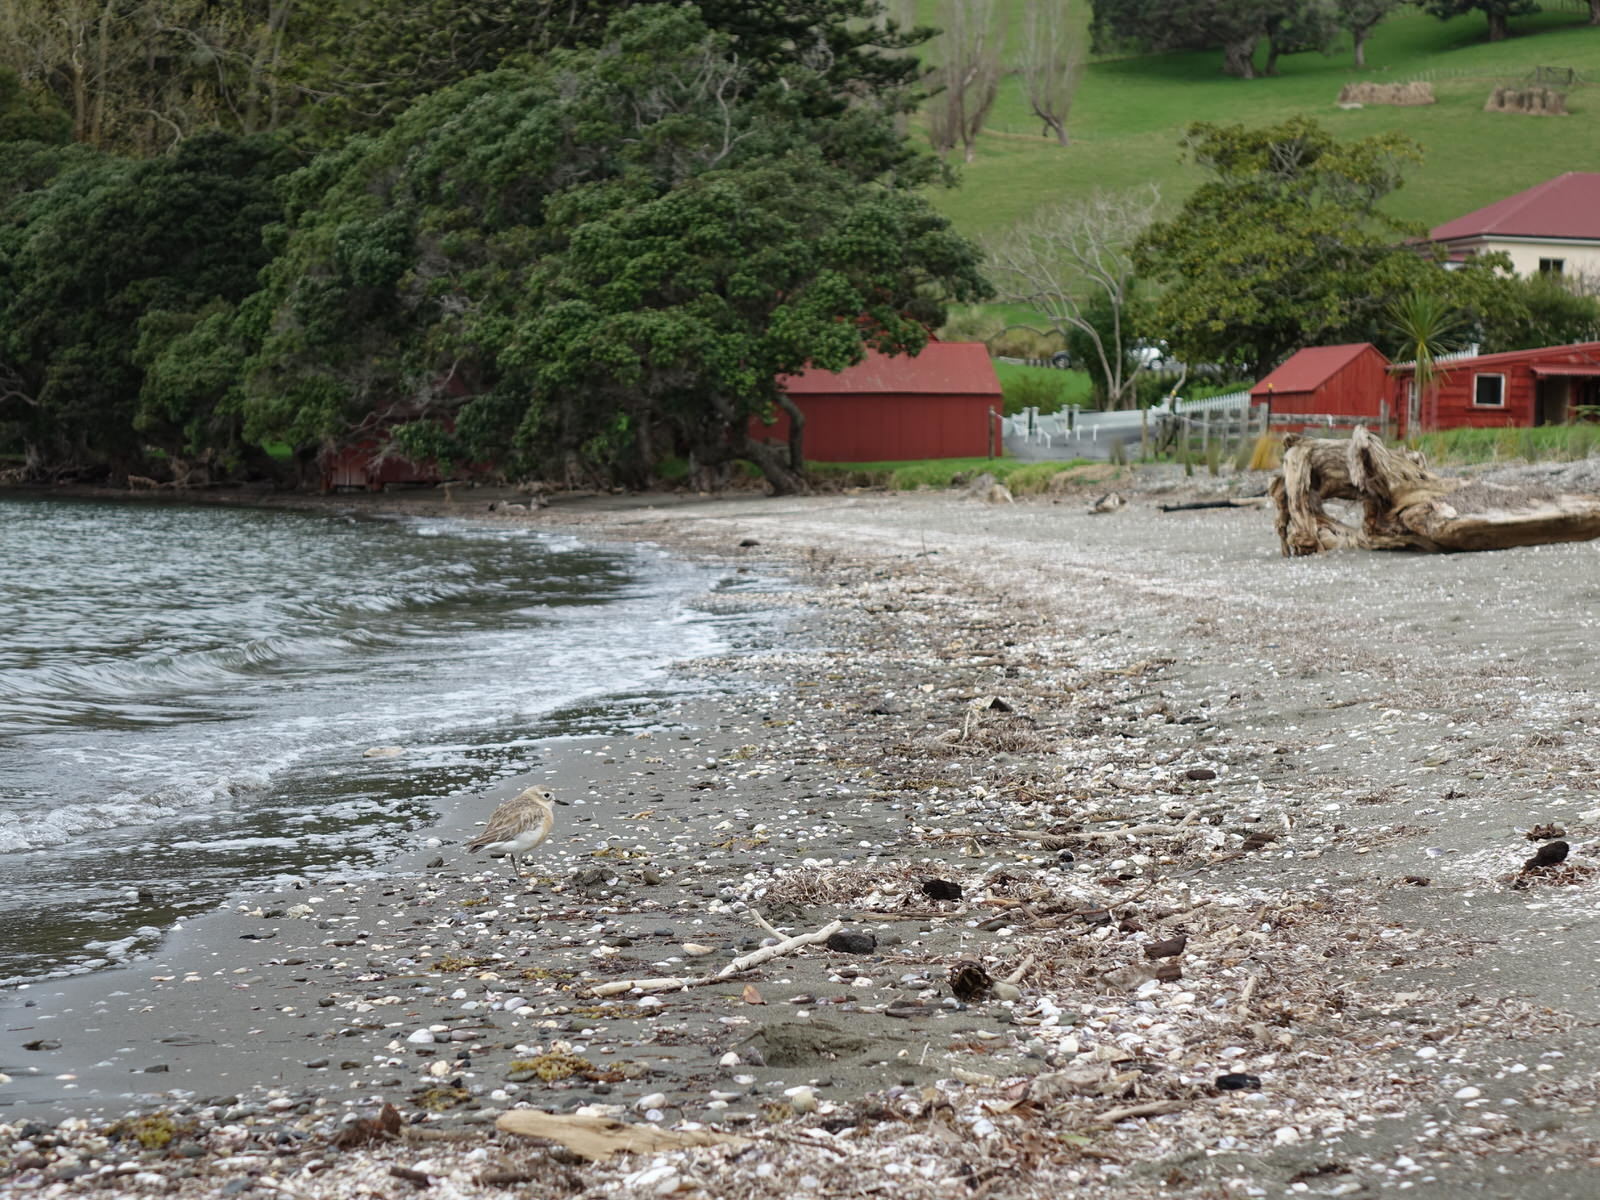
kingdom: Animalia
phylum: Chordata
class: Aves
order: Charadriiformes
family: Charadriidae
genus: Anarhynchus
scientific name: Anarhynchus
